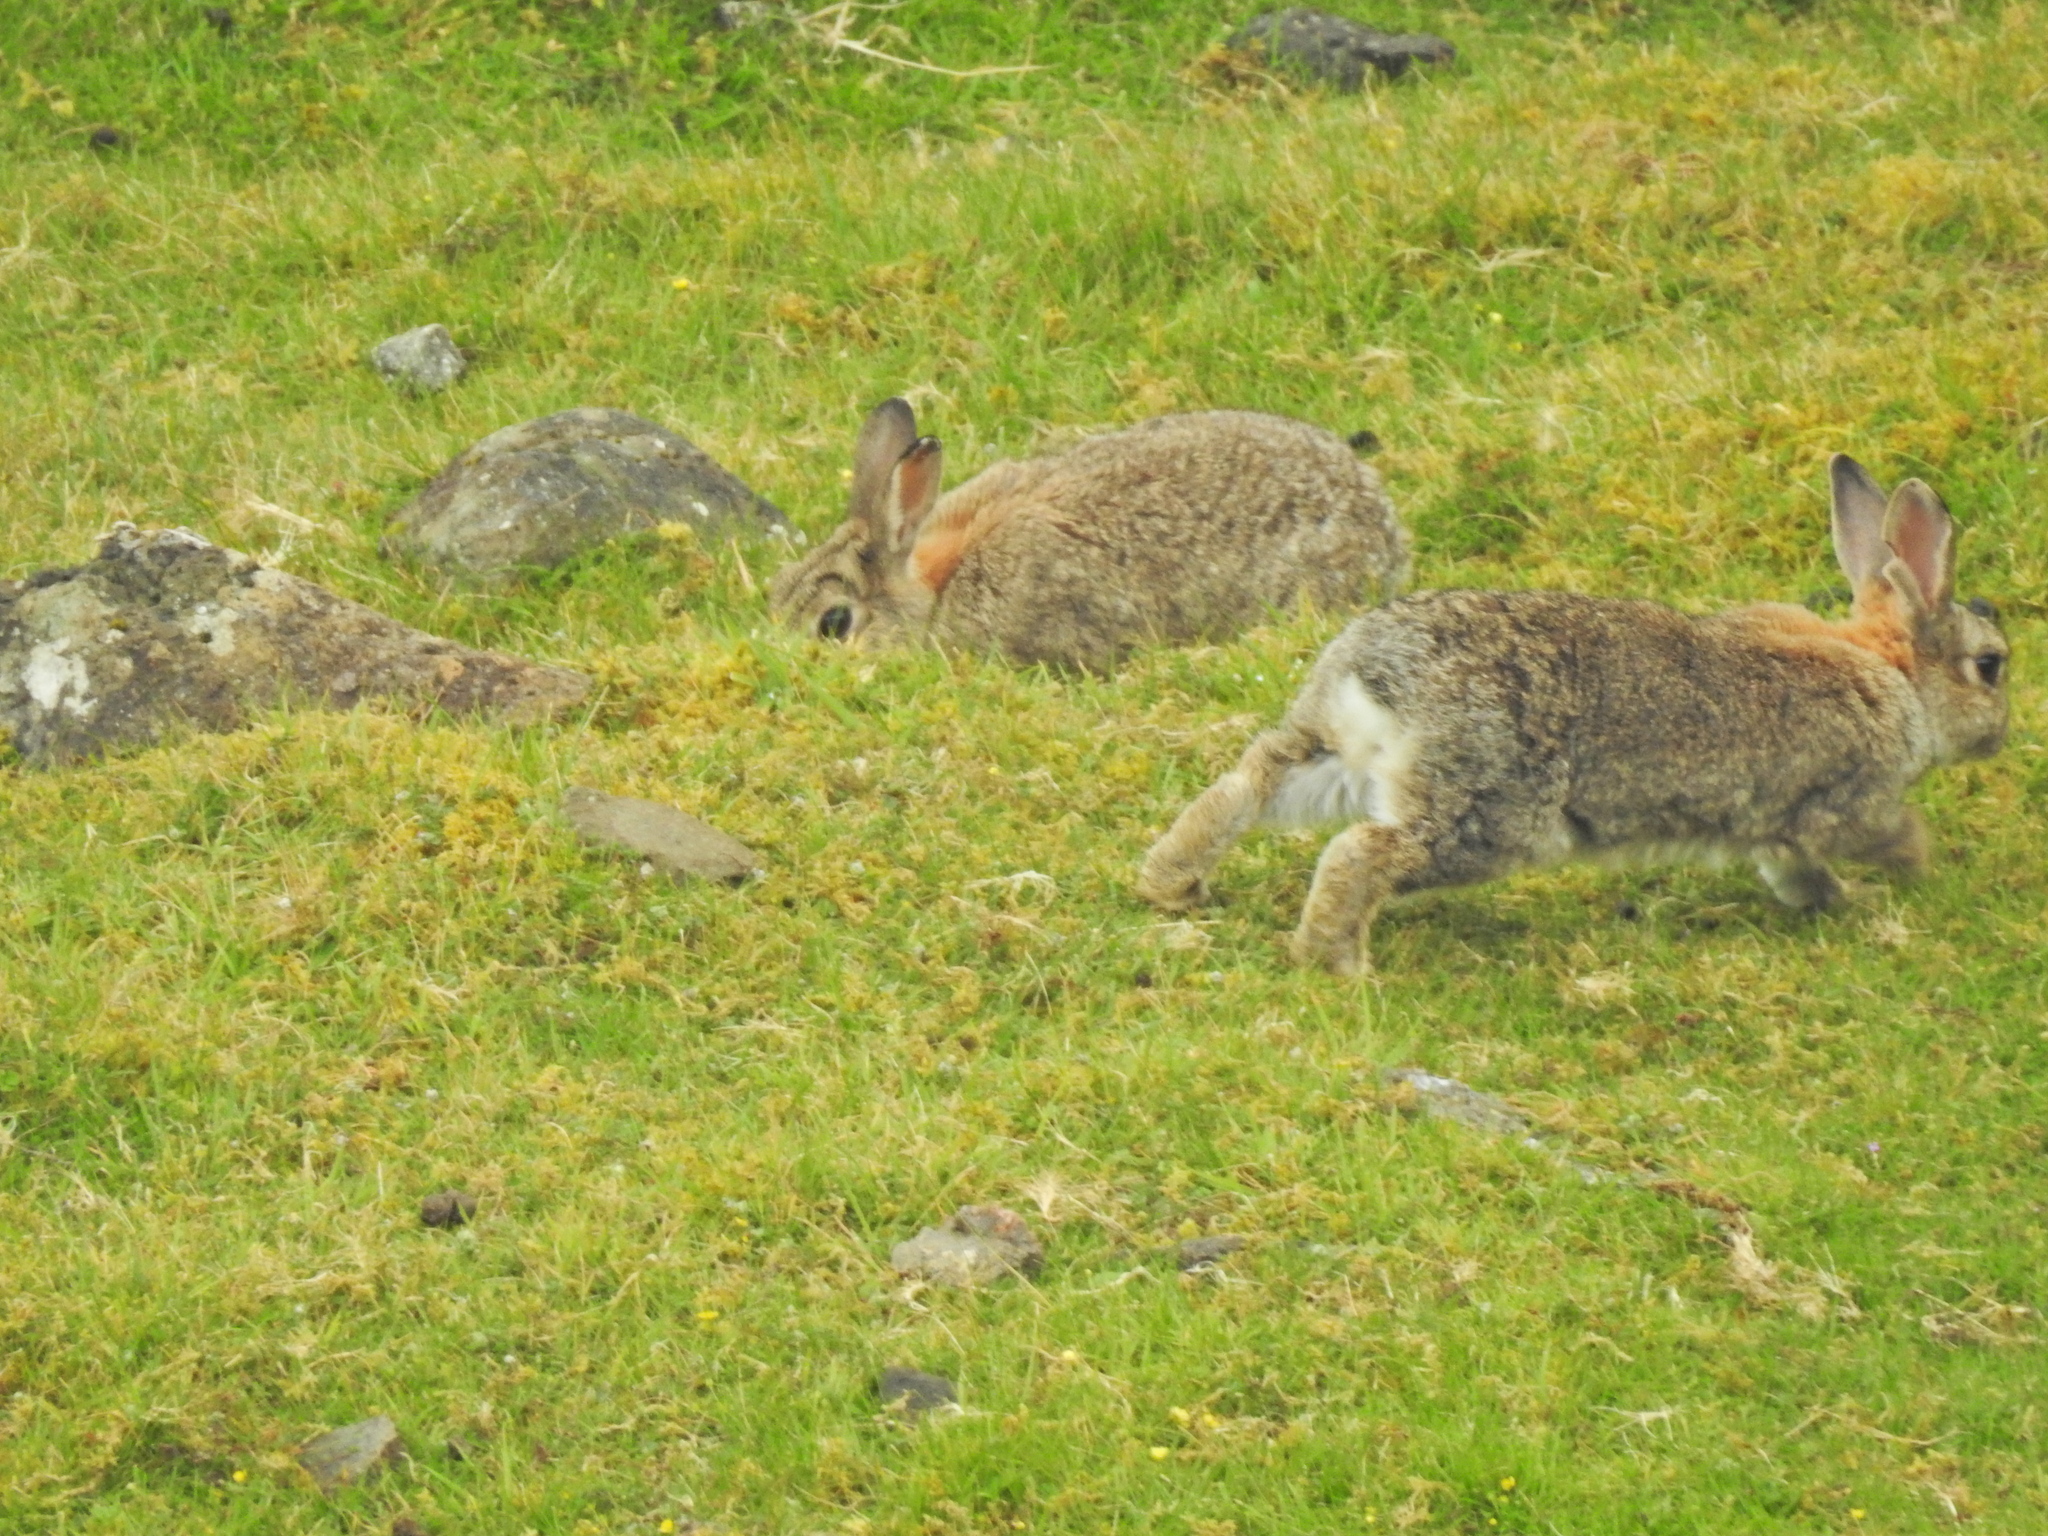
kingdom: Animalia
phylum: Chordata
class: Mammalia
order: Lagomorpha
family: Leporidae
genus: Oryctolagus
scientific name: Oryctolagus cuniculus
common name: European rabbit
